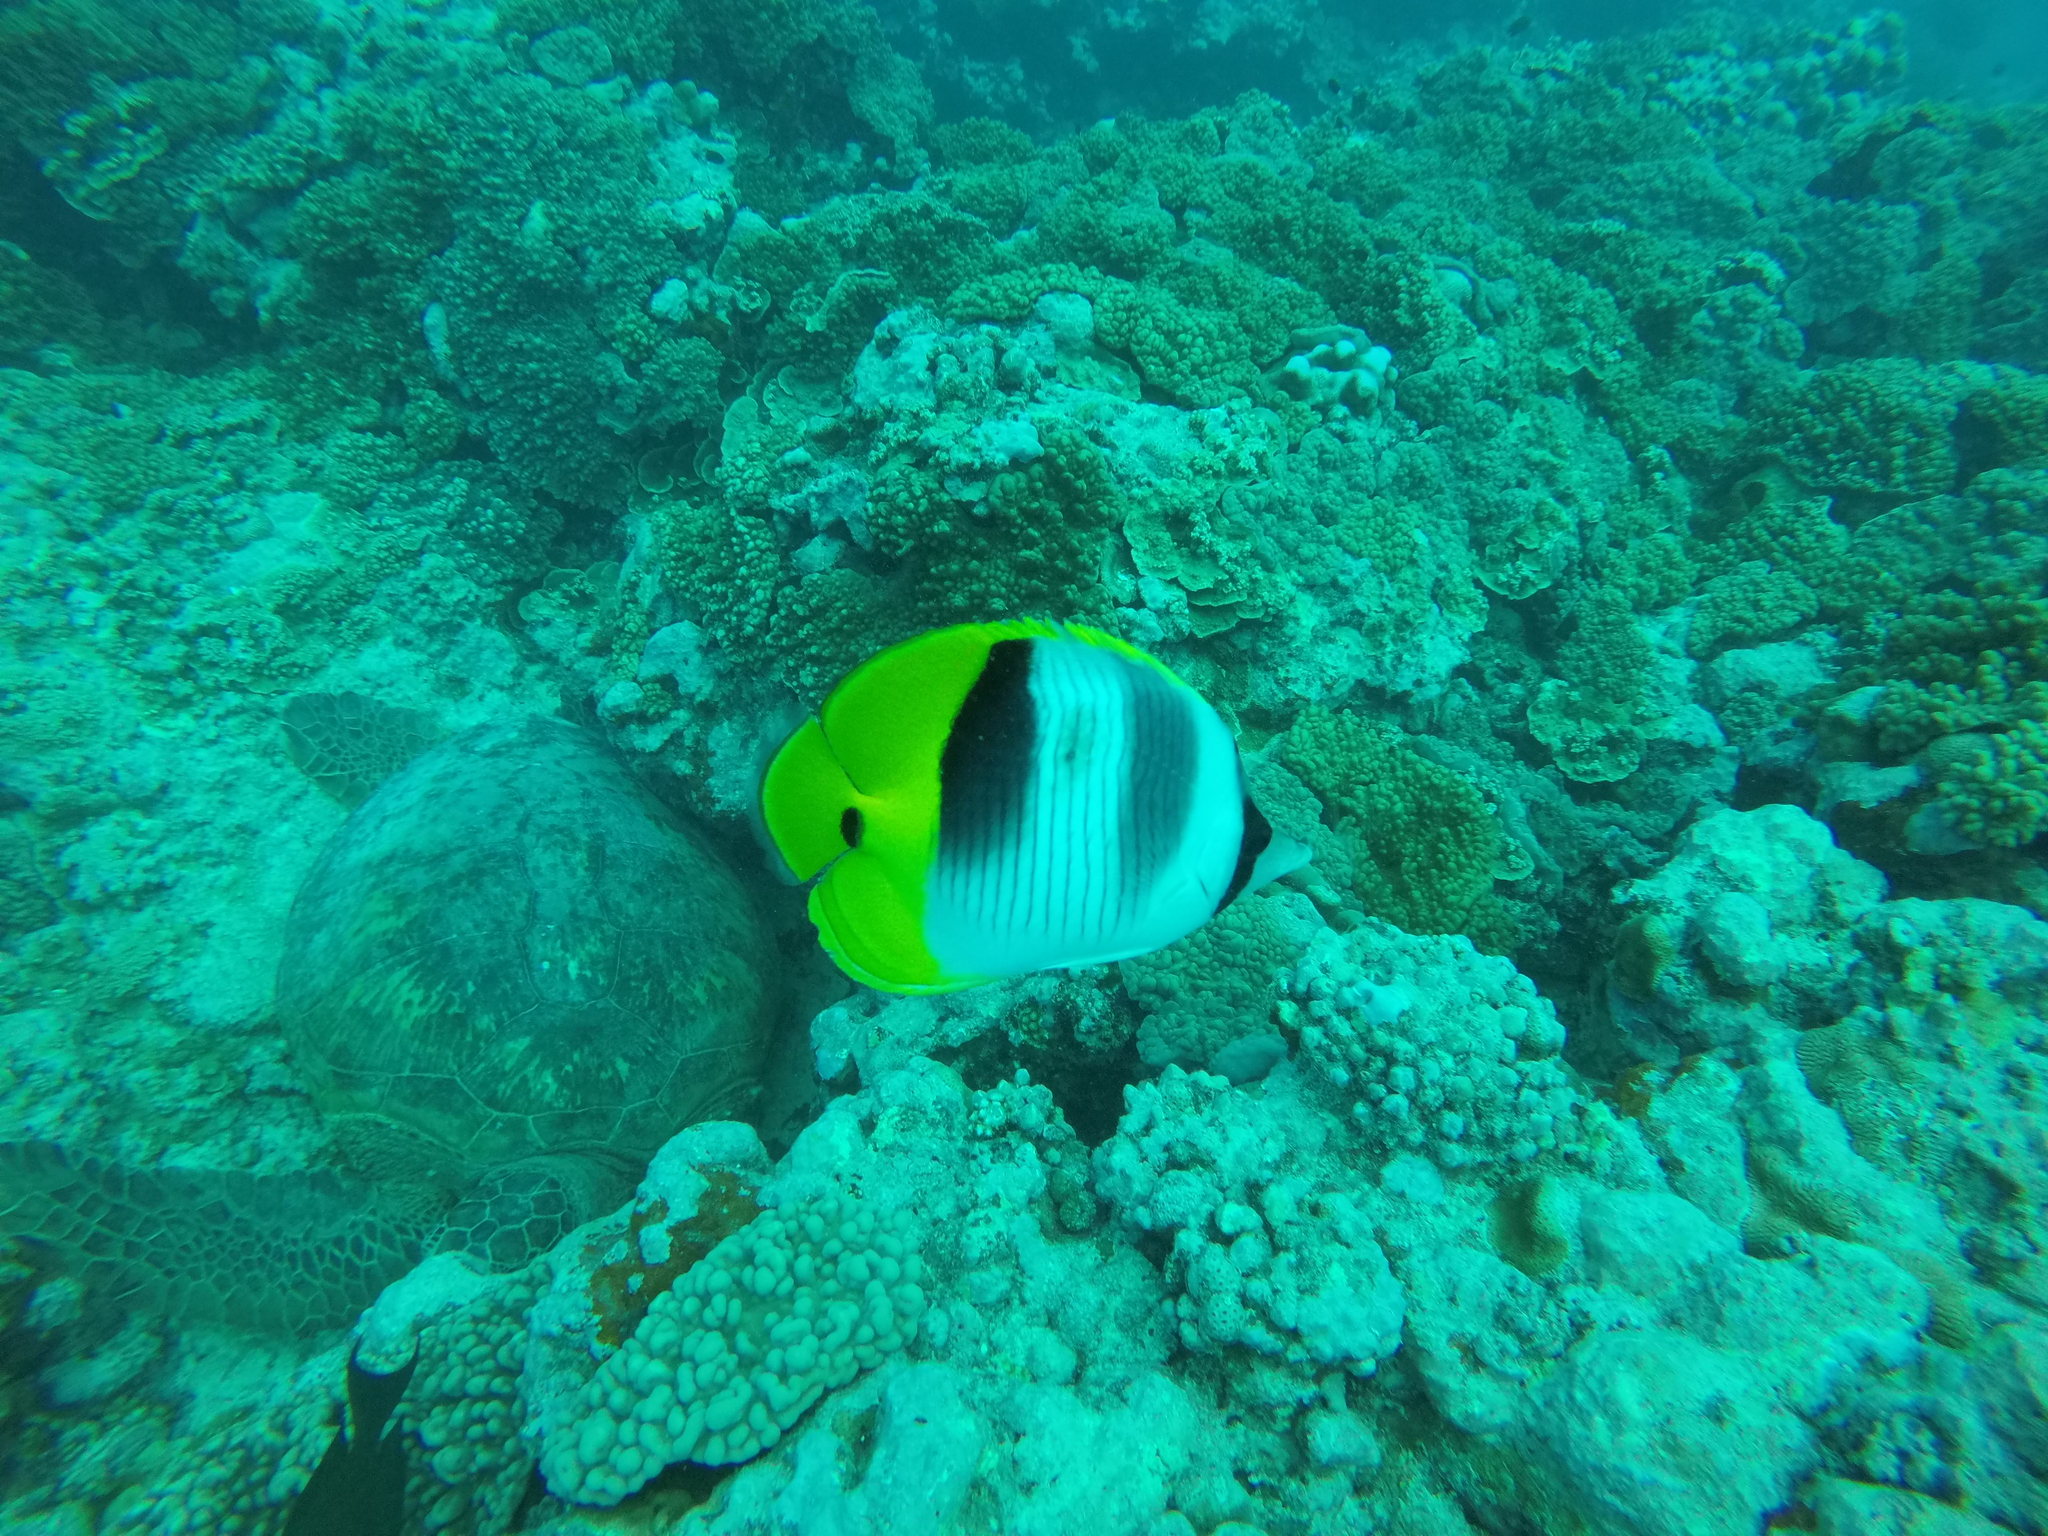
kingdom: Animalia
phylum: Chordata
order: Perciformes
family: Chaetodontidae
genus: Chaetodon
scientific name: Chaetodon ulietensis
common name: Pacific double-saddle butterflyfish
